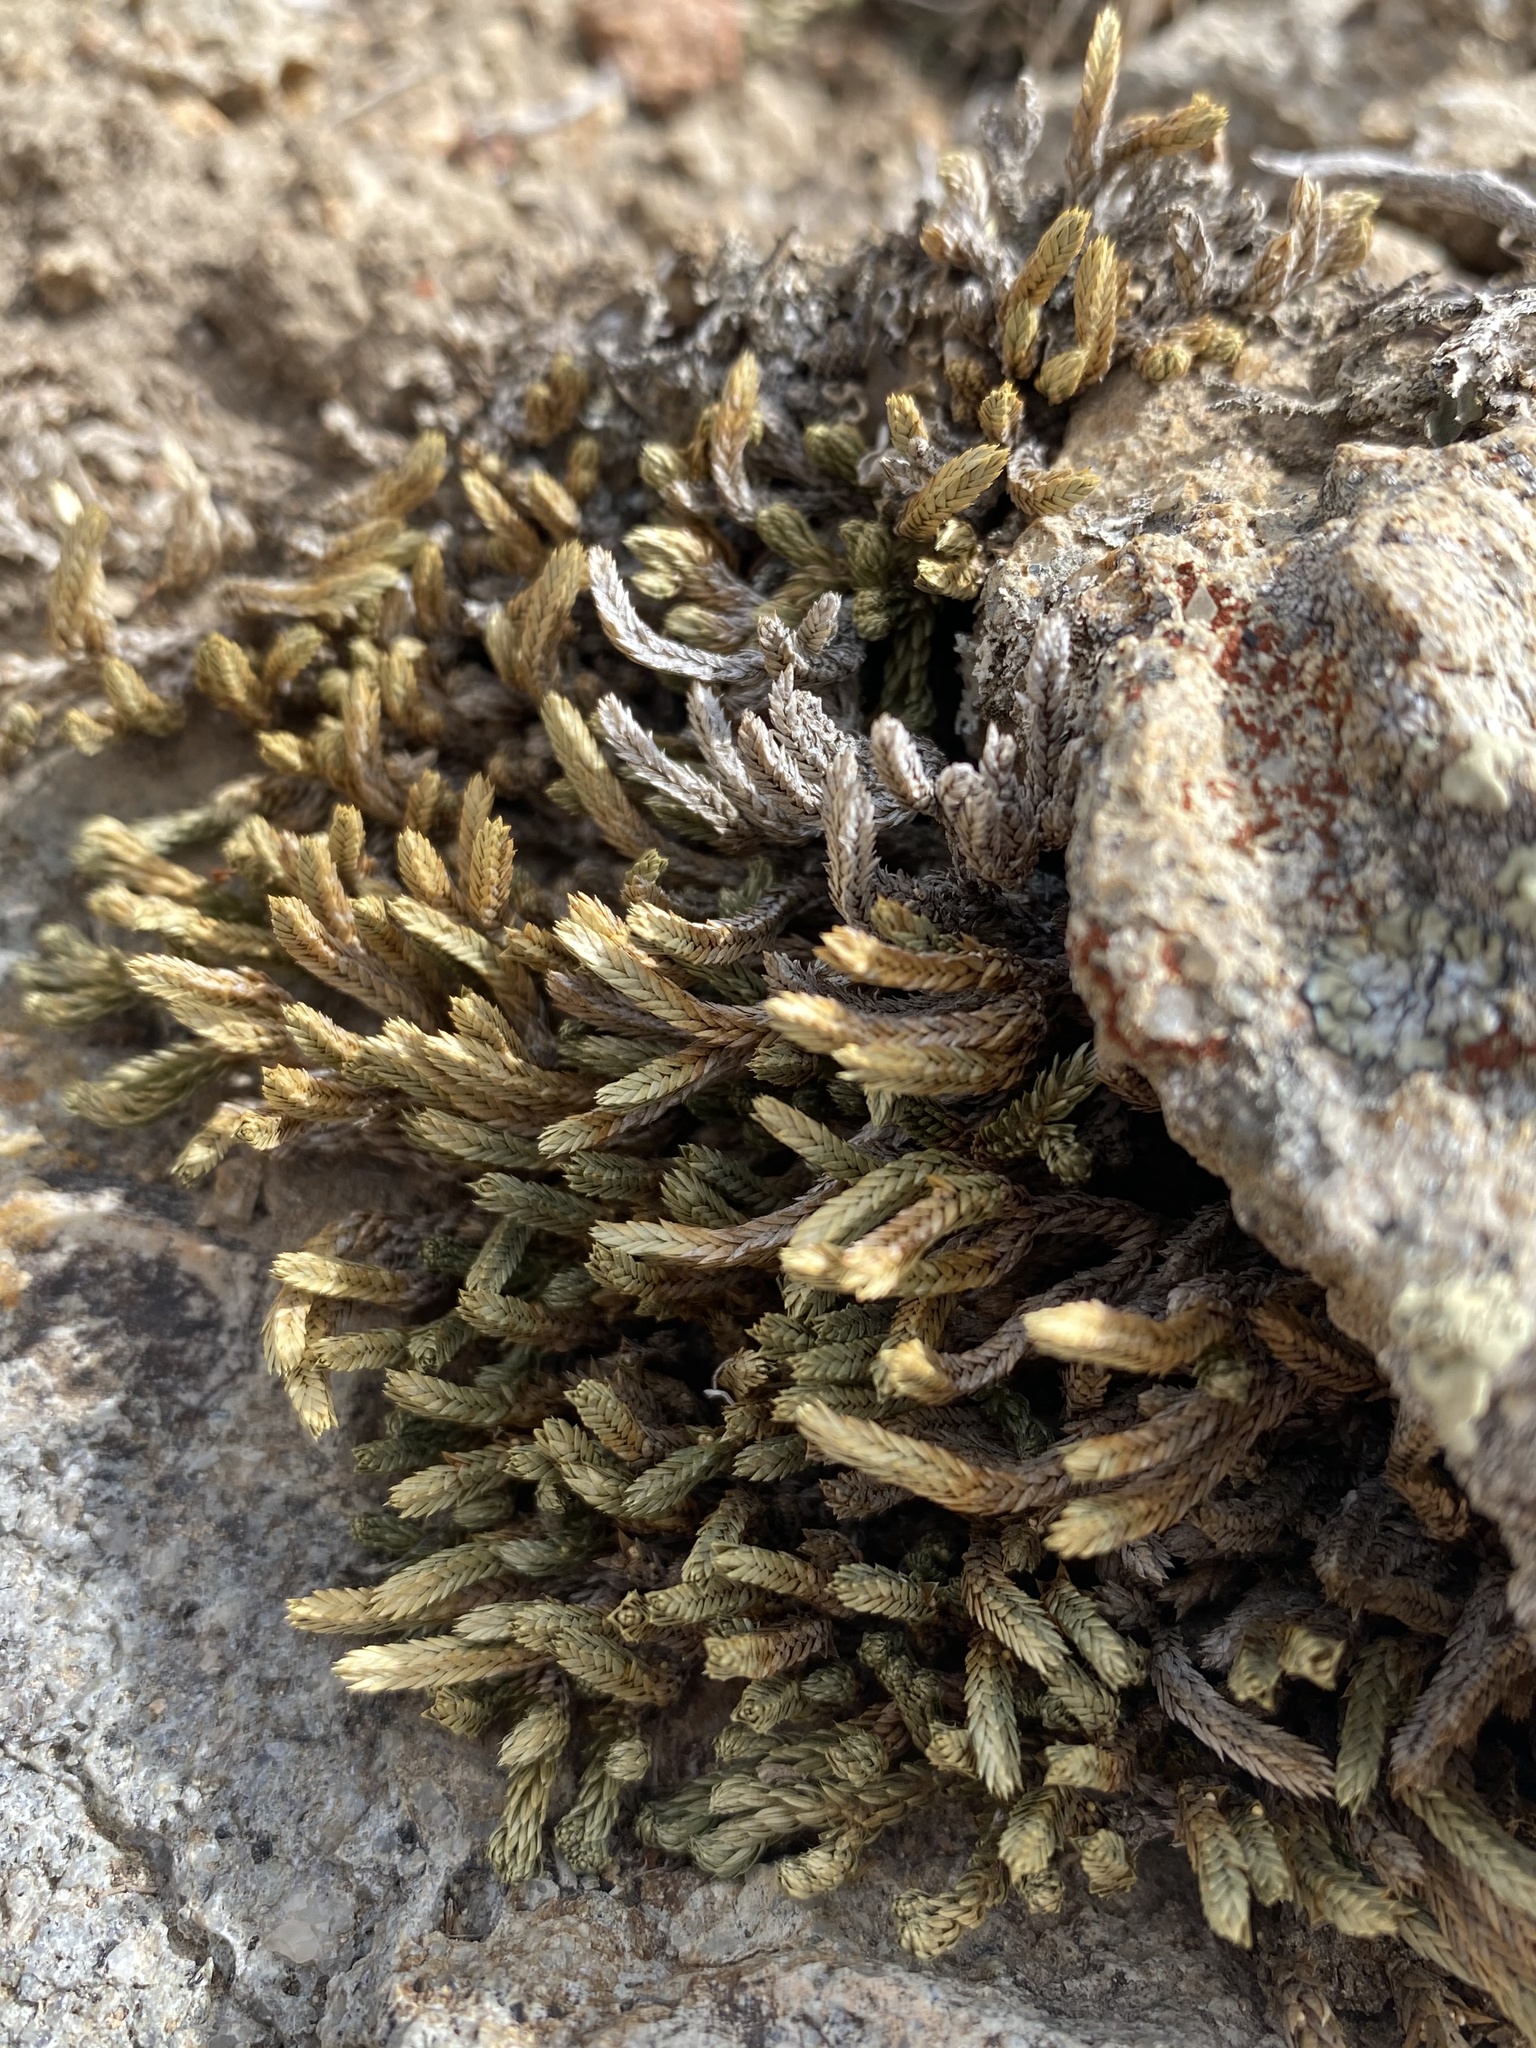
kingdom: Plantae
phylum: Tracheophyta
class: Lycopodiopsida
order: Selaginellales
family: Selaginellaceae
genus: Selaginella
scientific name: Selaginella watsonii
